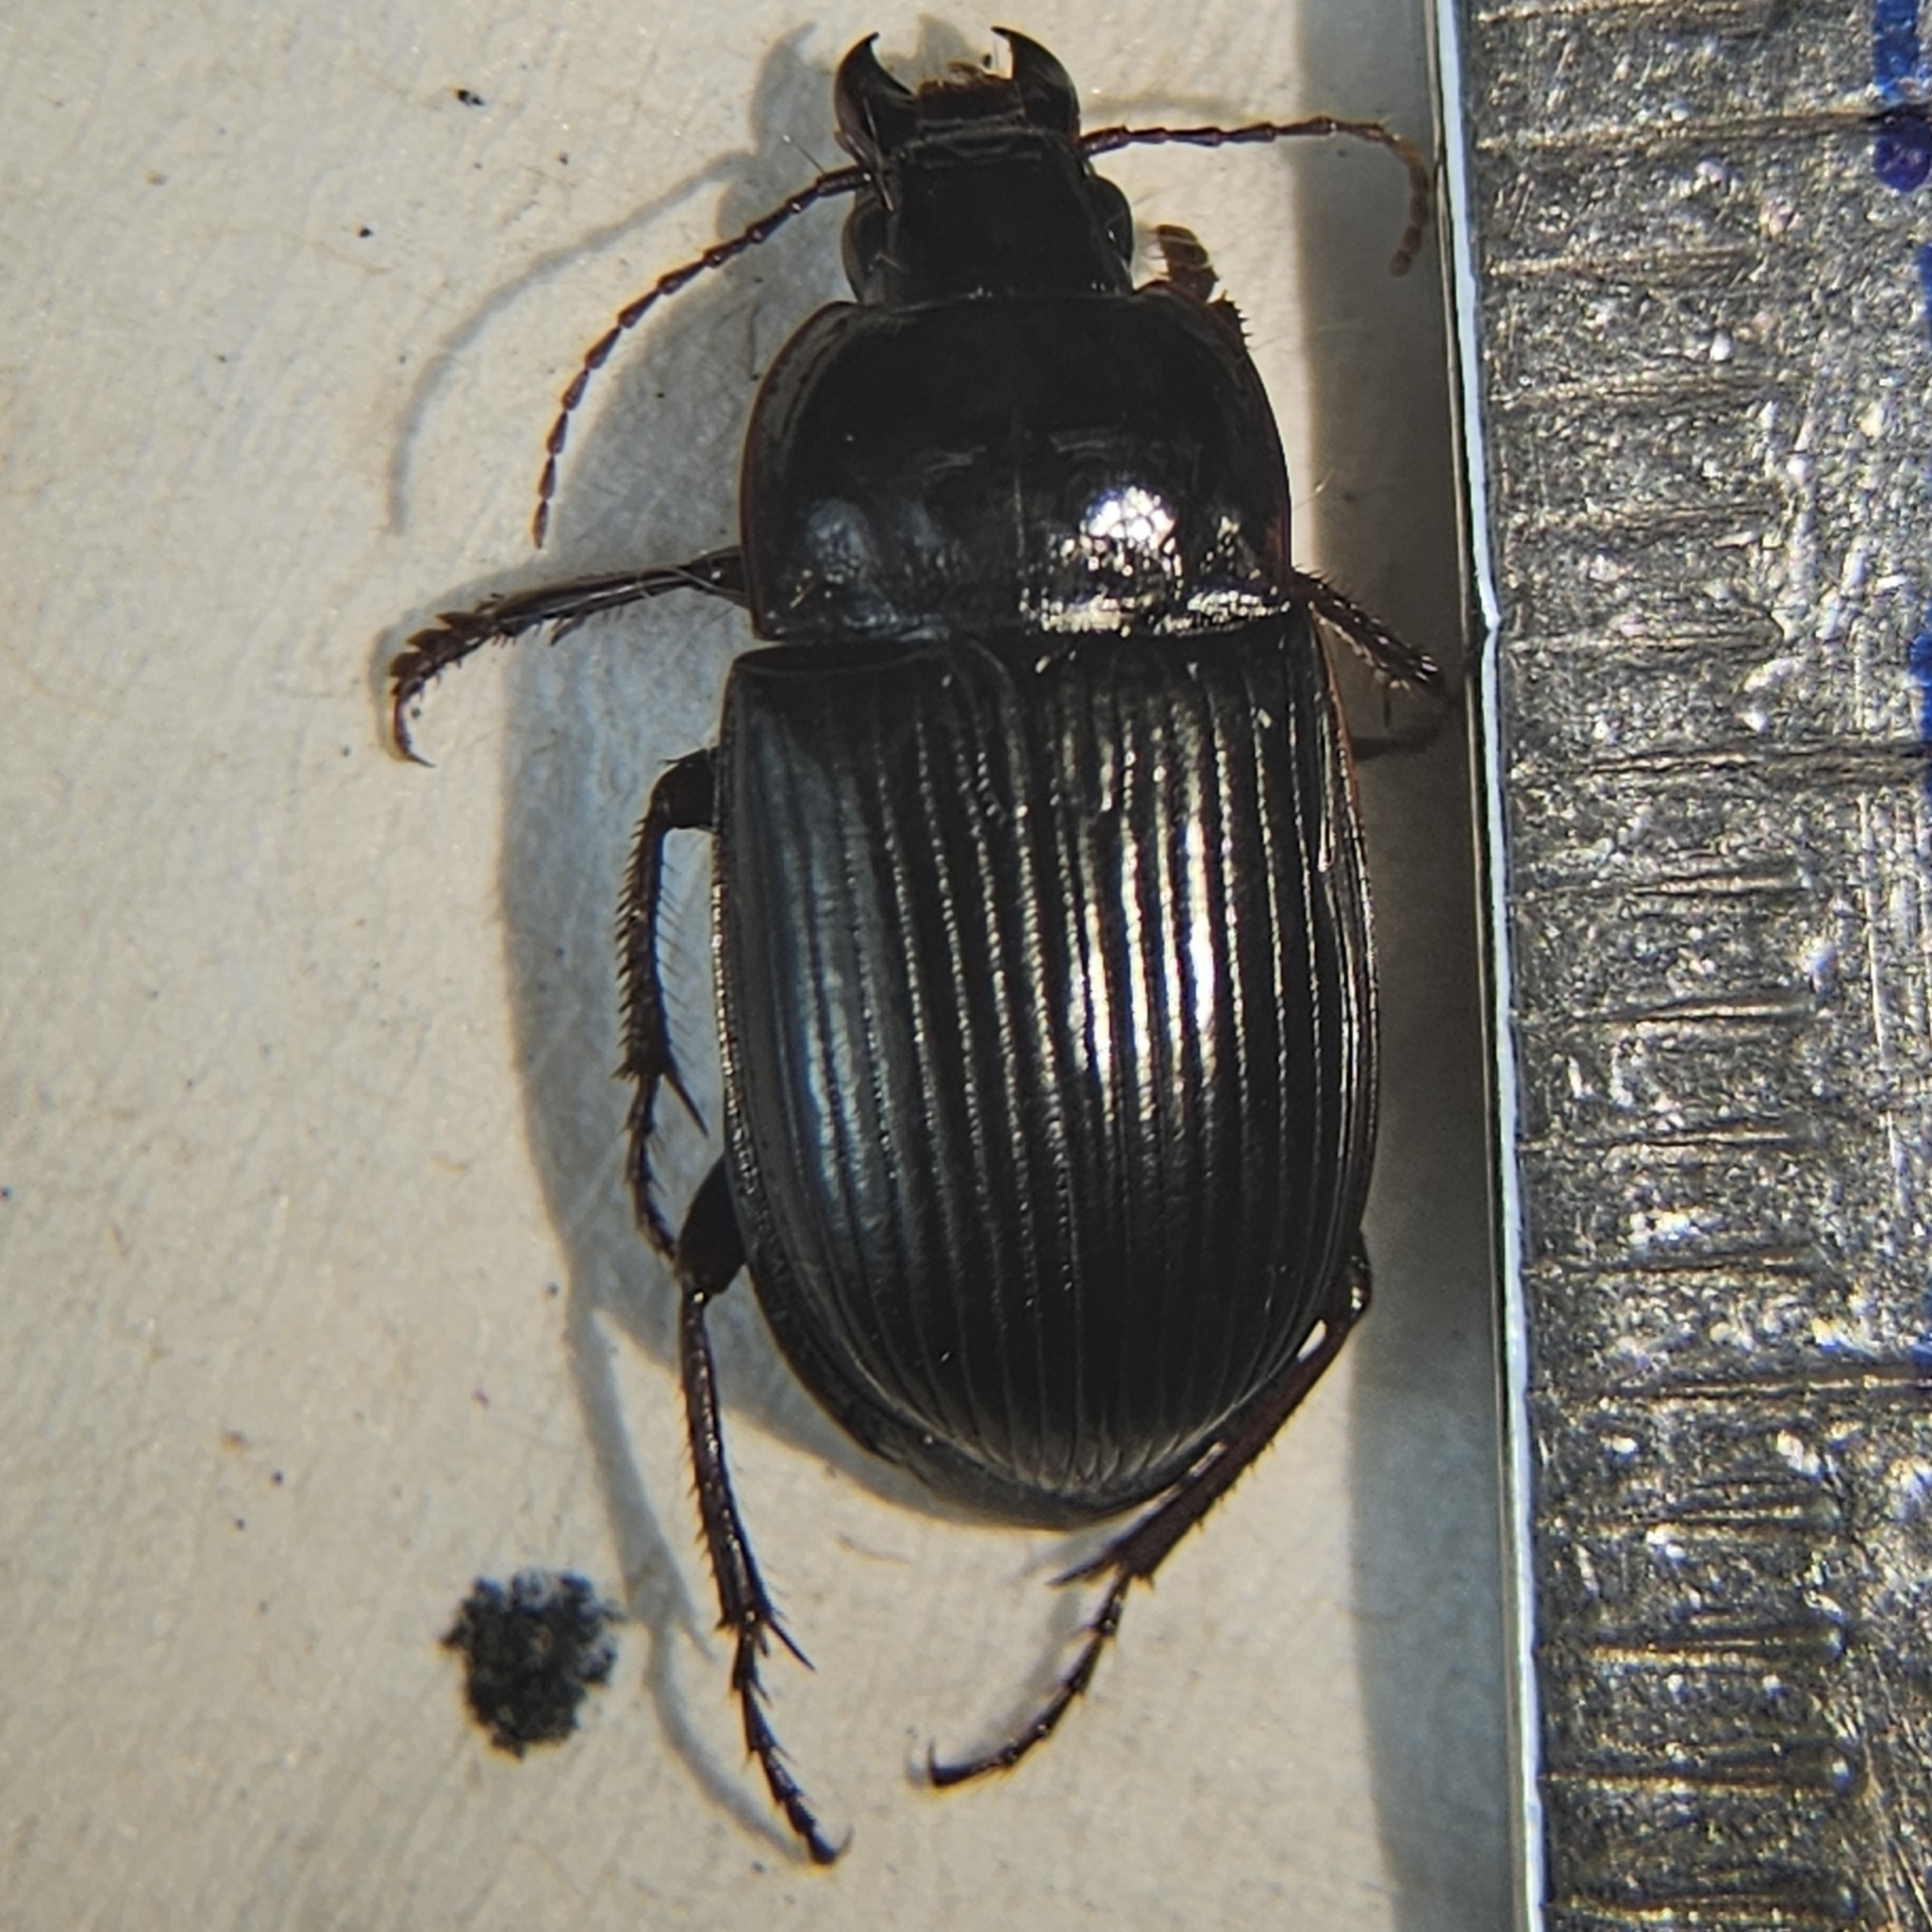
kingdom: Animalia
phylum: Arthropoda
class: Insecta
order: Coleoptera
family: Carabidae
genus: Amara
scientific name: Amara obesa
